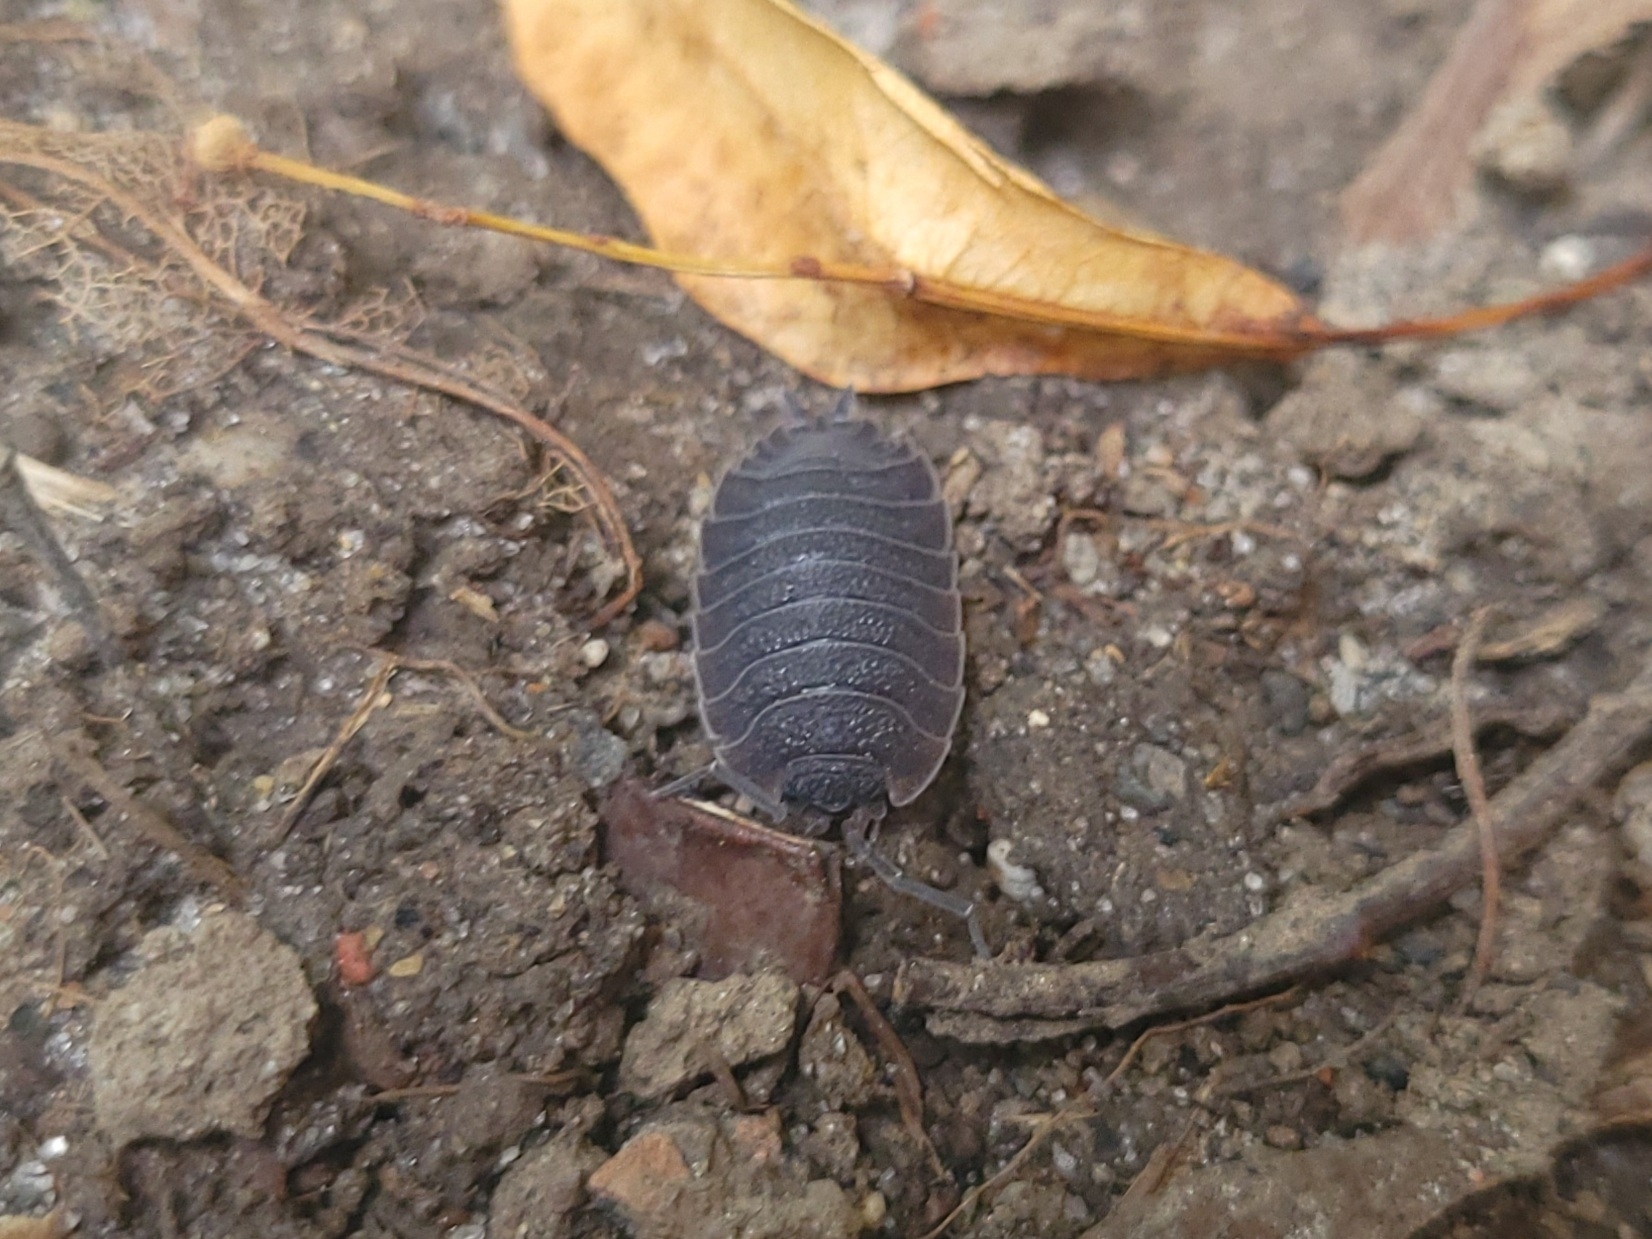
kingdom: Animalia
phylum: Arthropoda
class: Malacostraca
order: Isopoda
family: Porcellionidae
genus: Porcellio
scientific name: Porcellio scaber
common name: Common rough woodlouse
